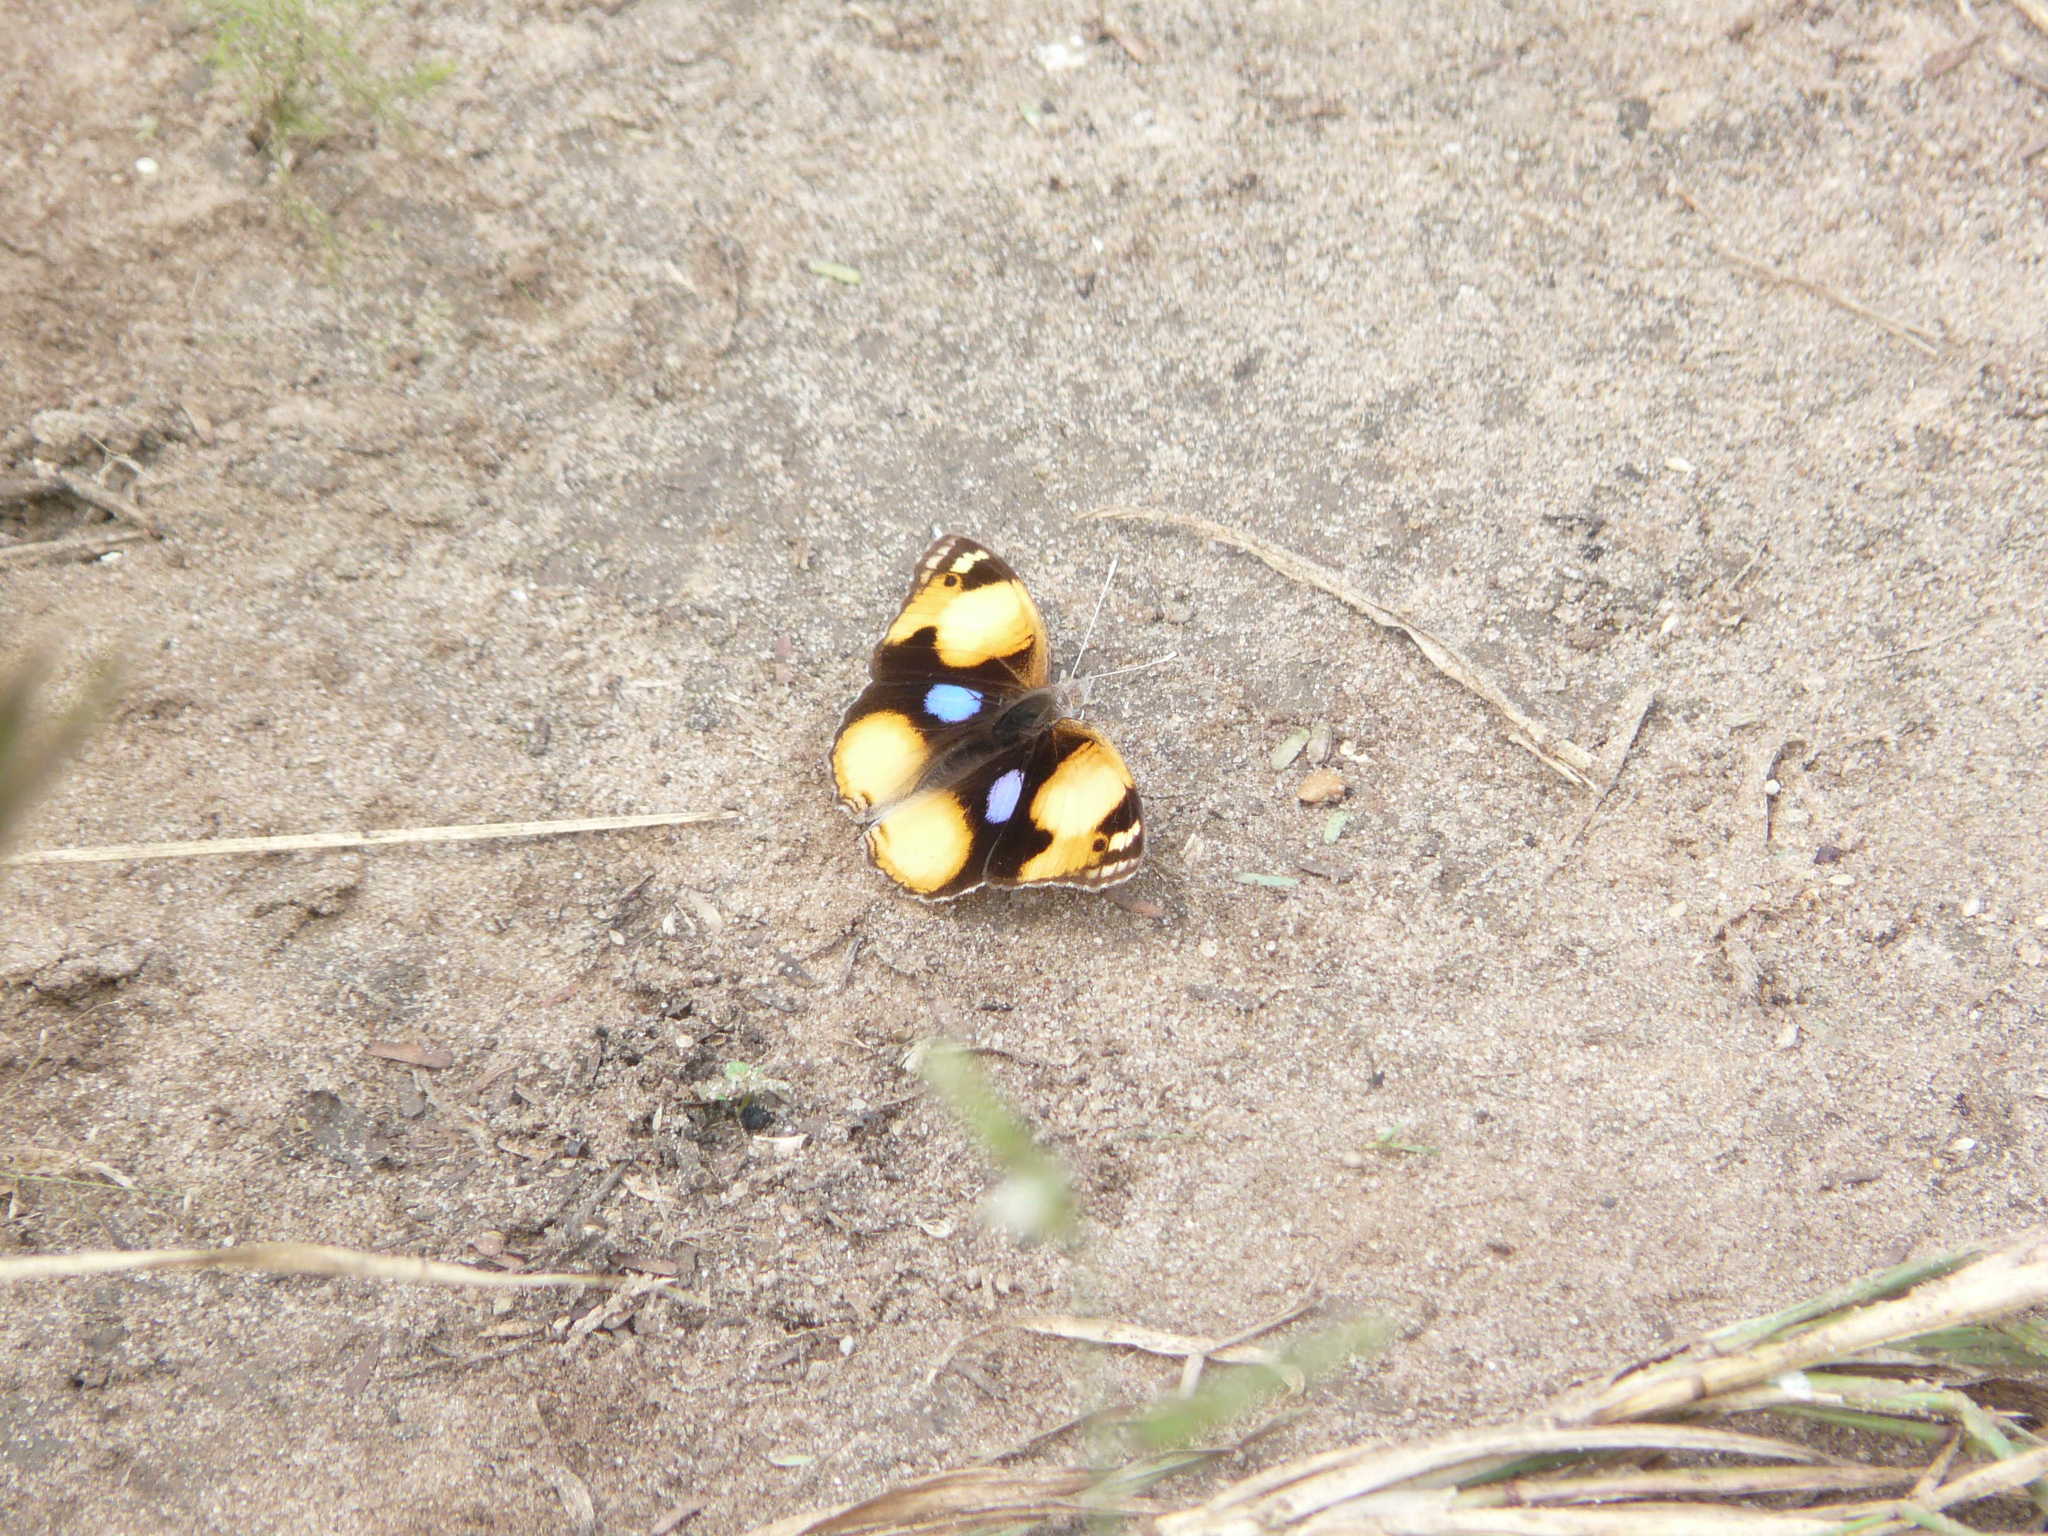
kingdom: Animalia
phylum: Arthropoda
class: Insecta
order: Lepidoptera
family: Nymphalidae
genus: Junonia
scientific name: Junonia hierta
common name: Yellow pansy
